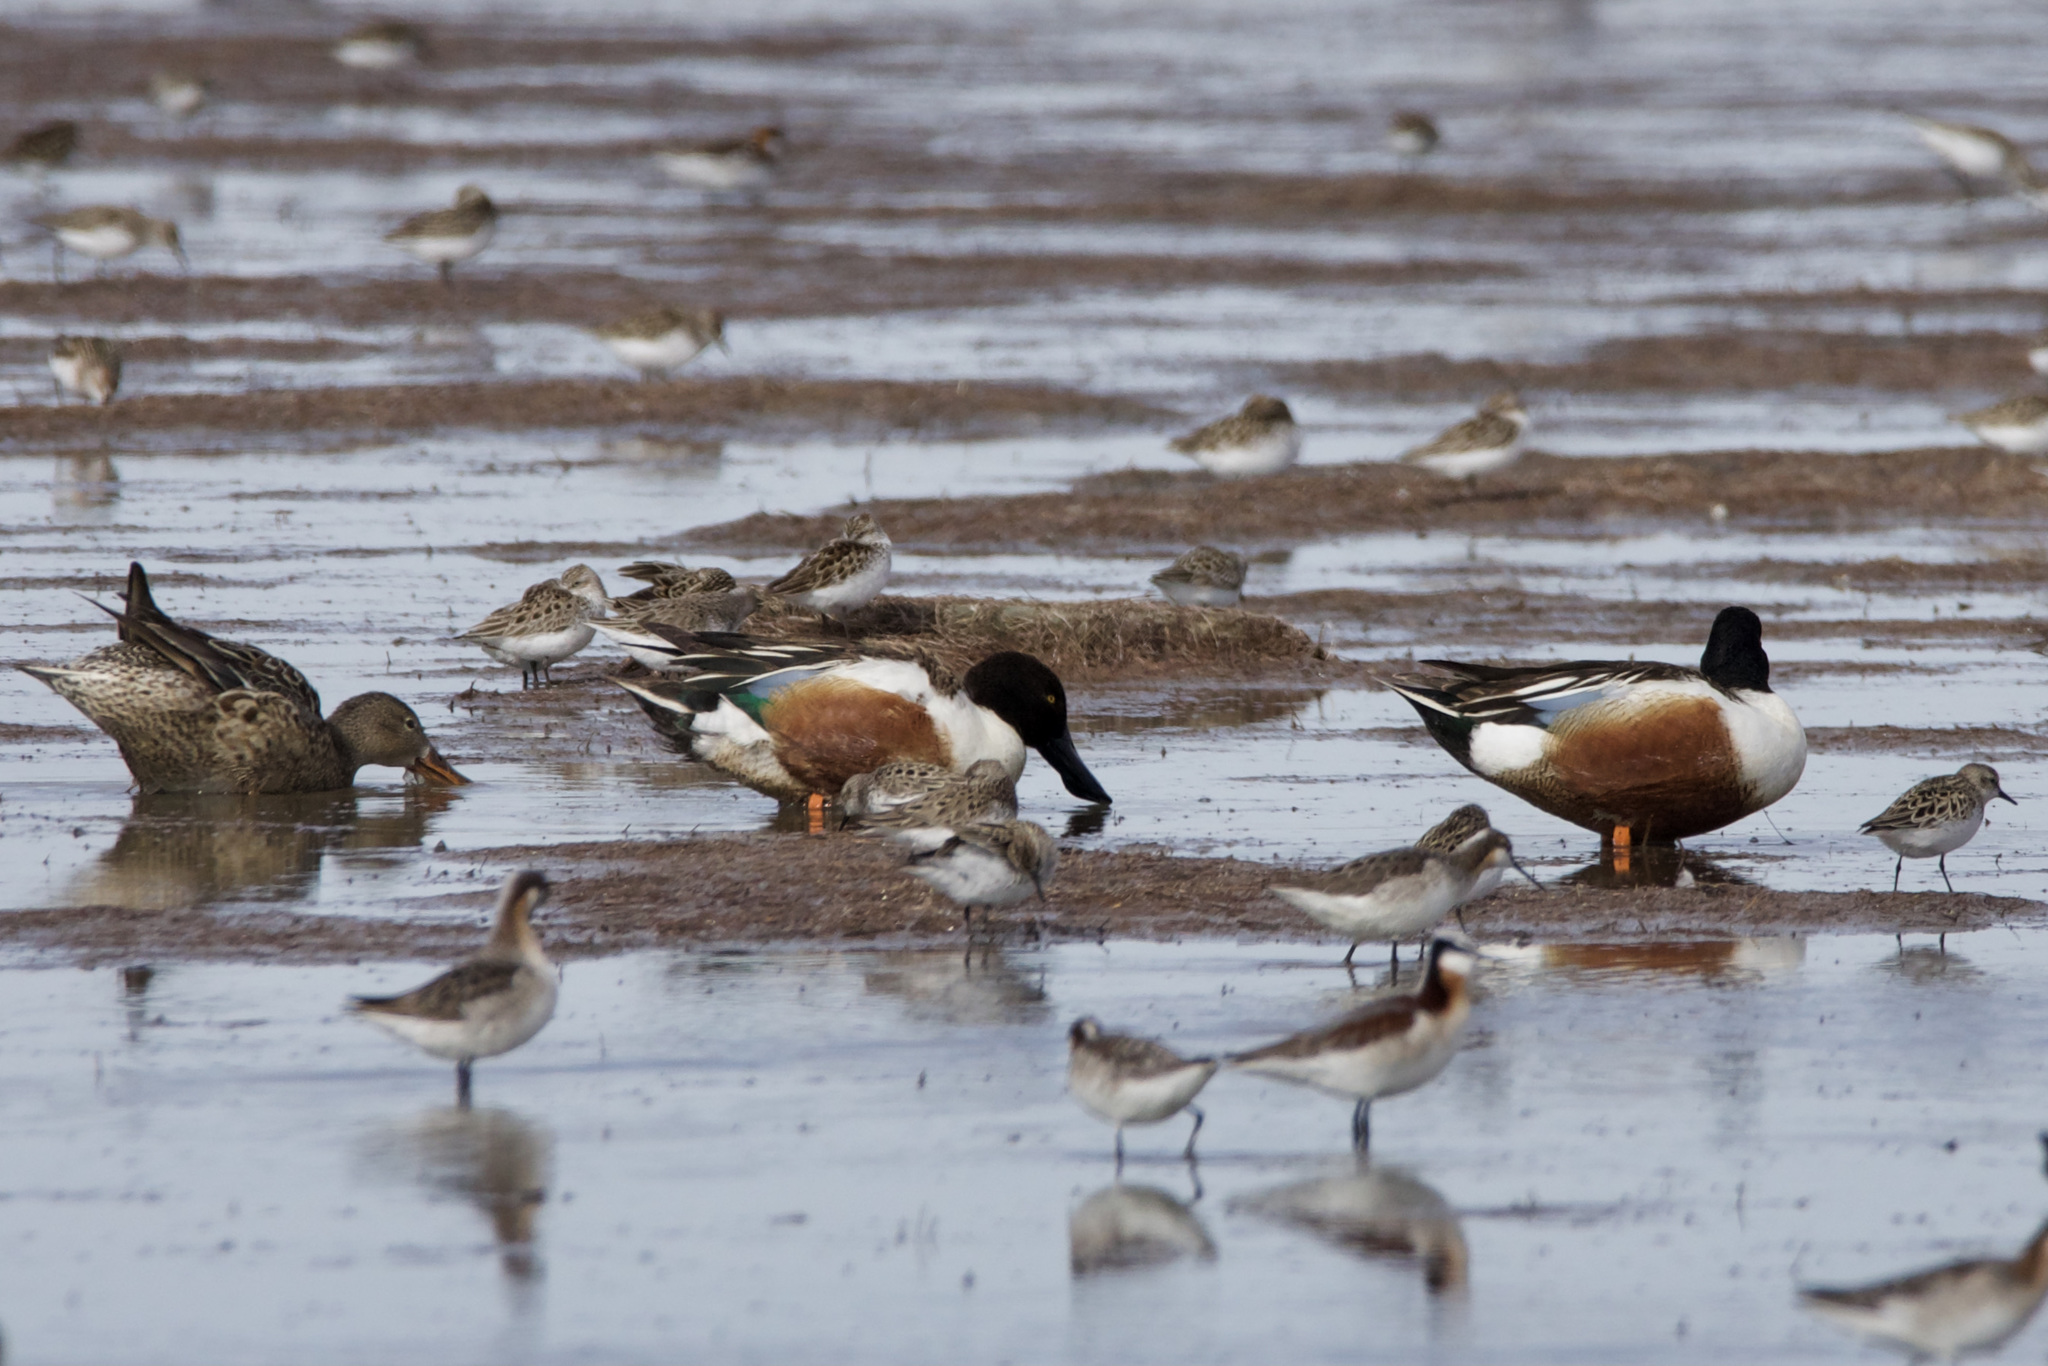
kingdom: Animalia
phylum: Chordata
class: Aves
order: Anseriformes
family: Anatidae
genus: Spatula
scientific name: Spatula clypeata
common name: Northern shoveler
